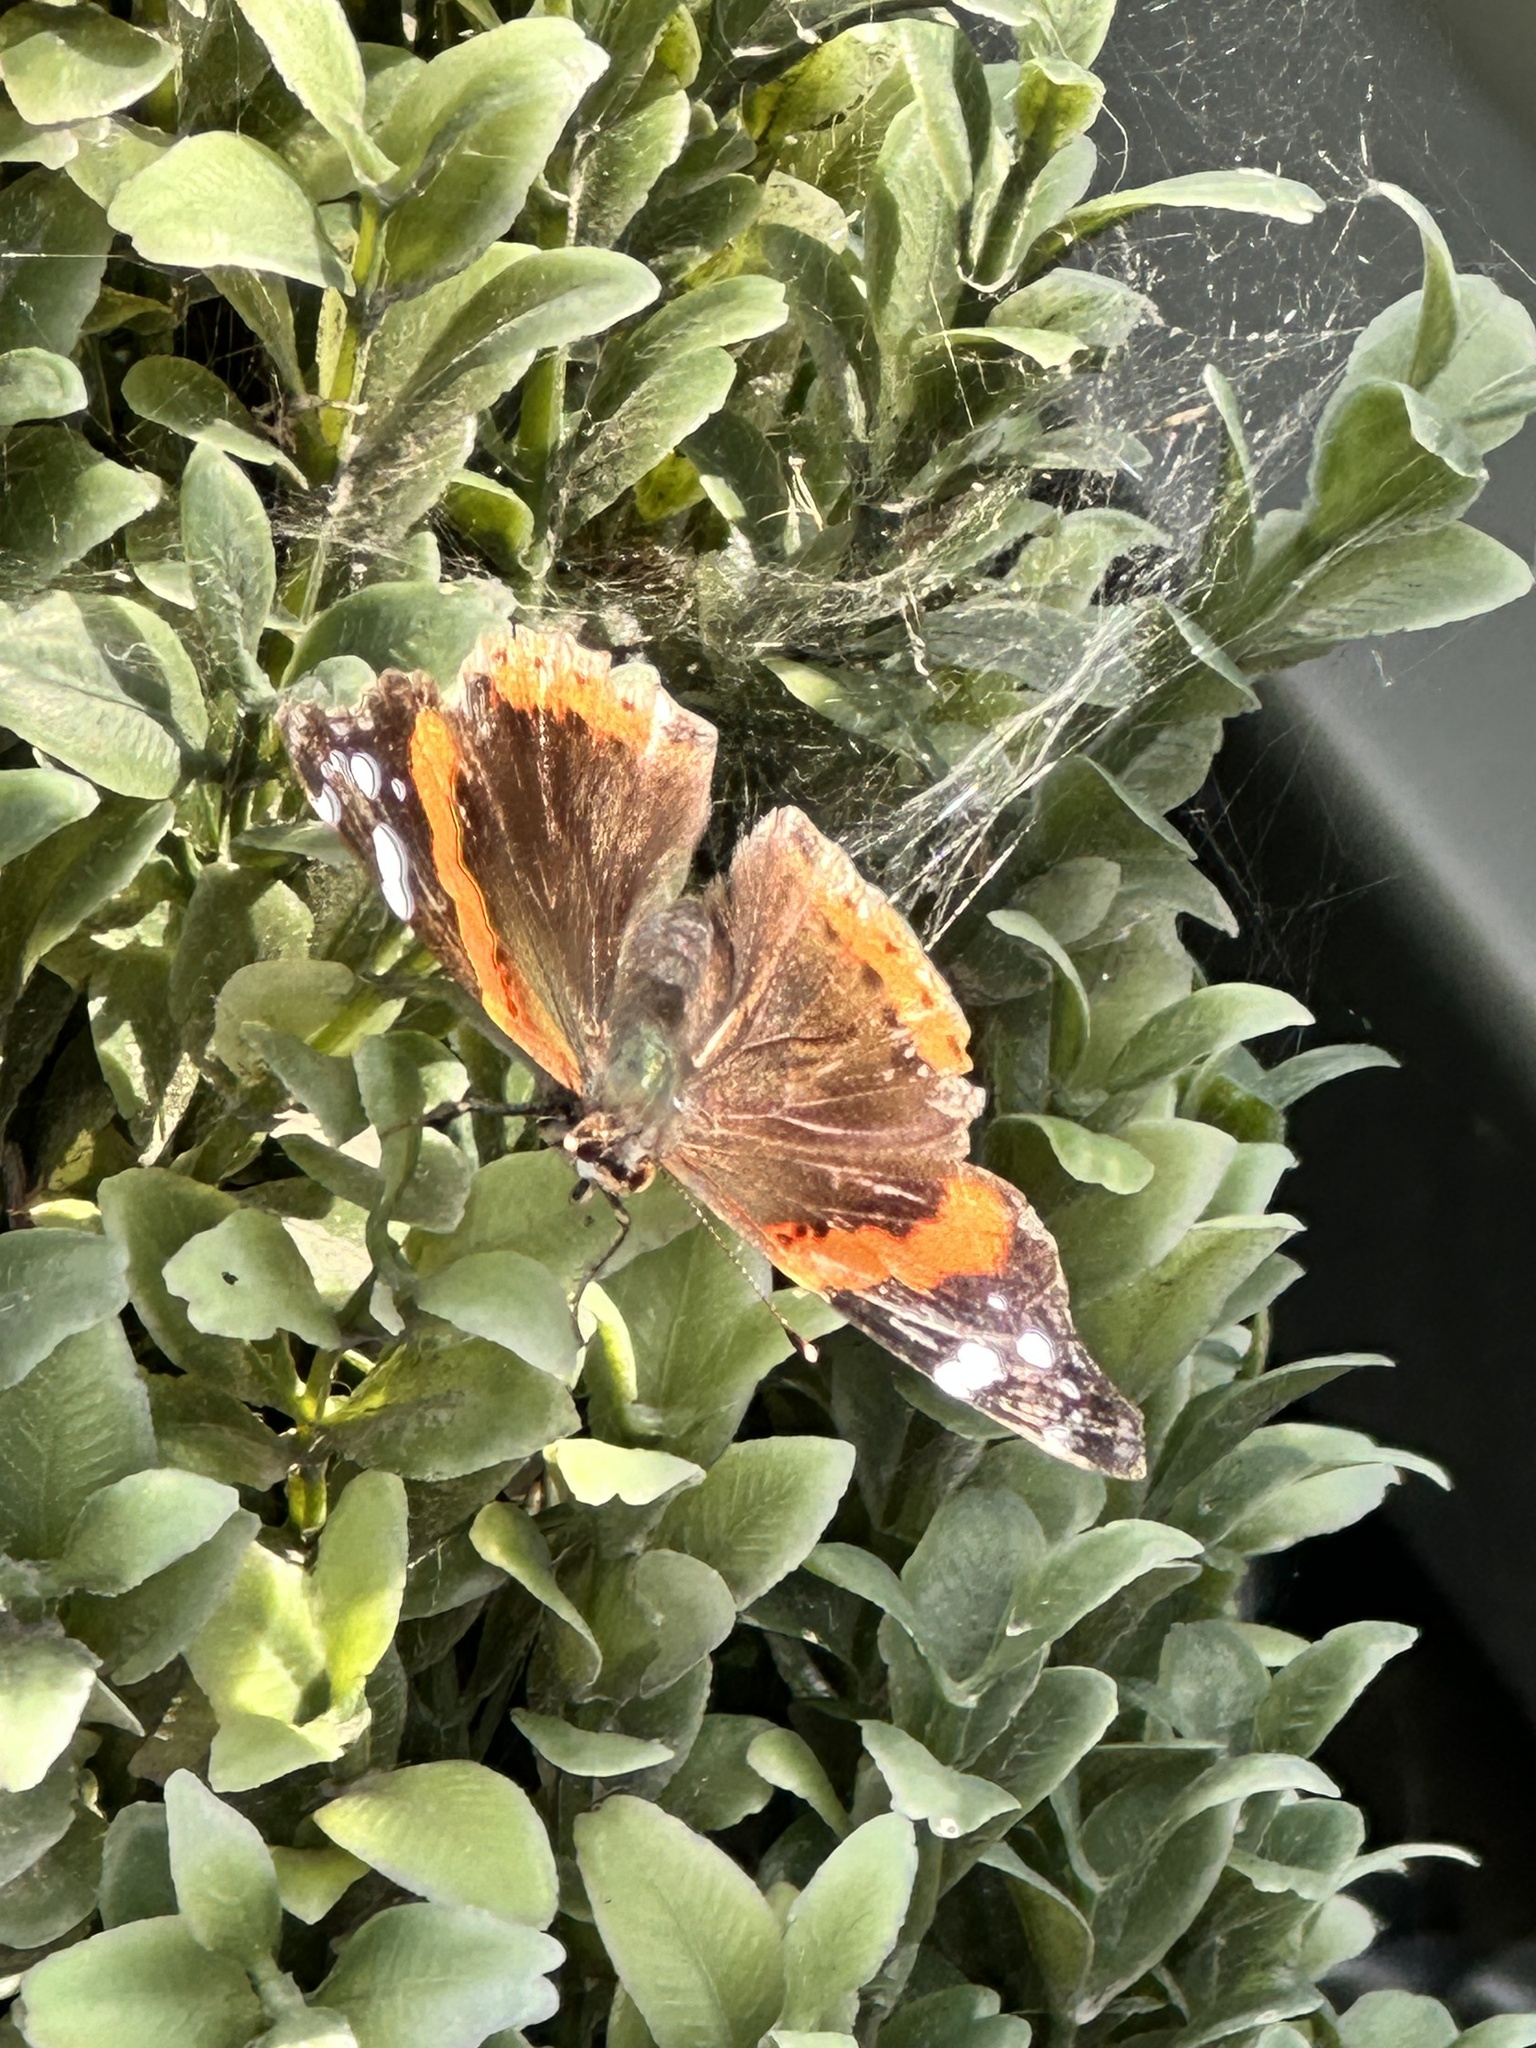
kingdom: Animalia
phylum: Arthropoda
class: Insecta
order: Lepidoptera
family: Nymphalidae
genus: Vanessa
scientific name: Vanessa atalanta
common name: Red admiral
